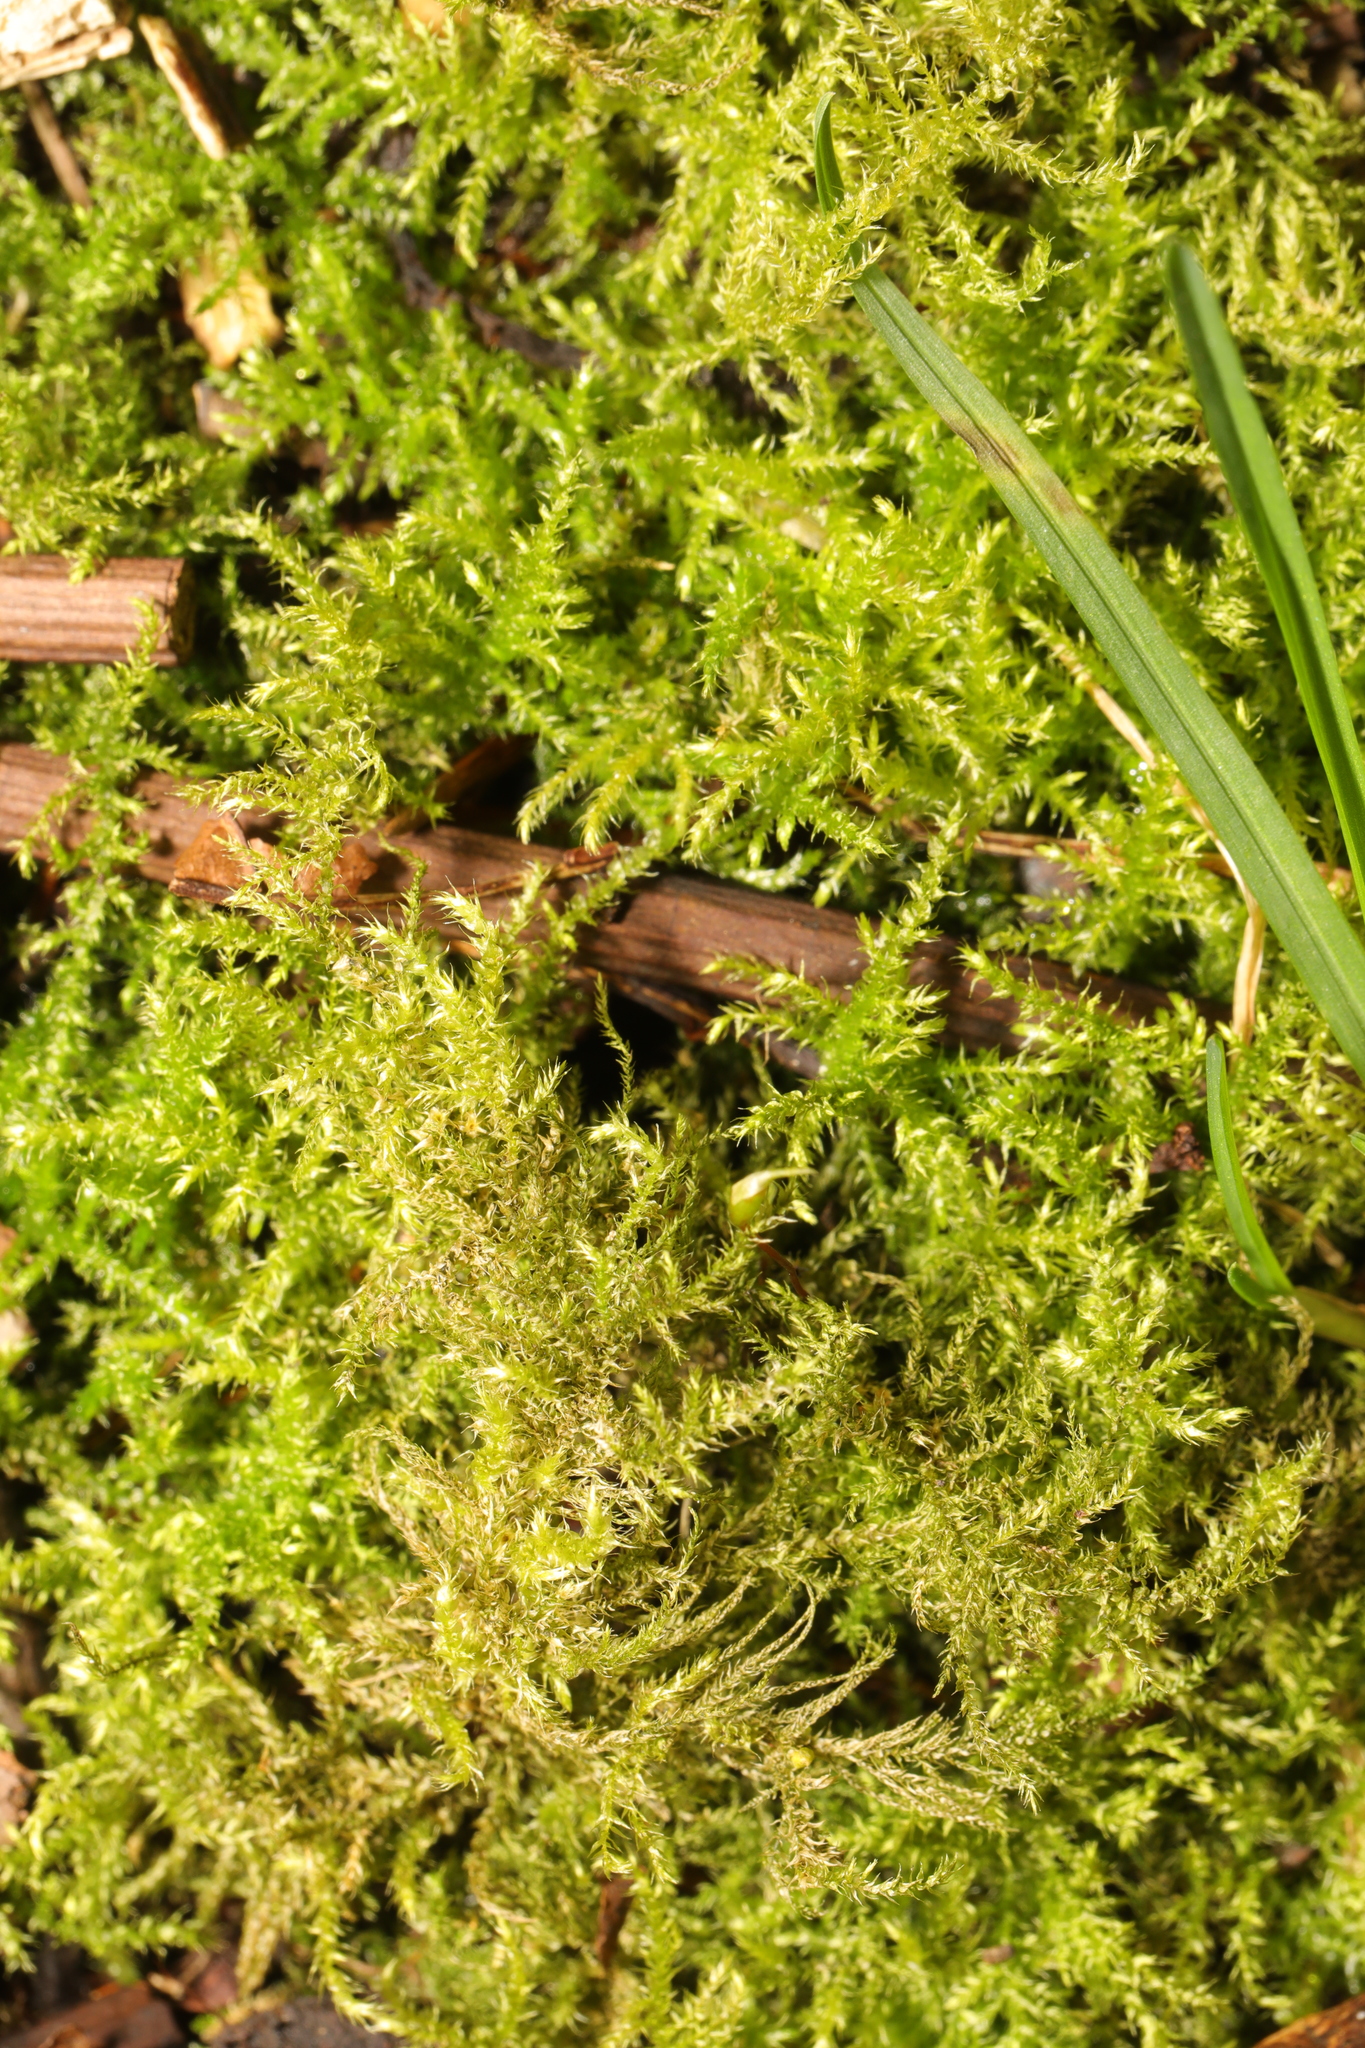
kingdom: Plantae
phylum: Bryophyta
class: Bryopsida
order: Hypnales
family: Brachytheciaceae
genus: Kindbergia
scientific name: Kindbergia praelonga
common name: Slender beaked moss
